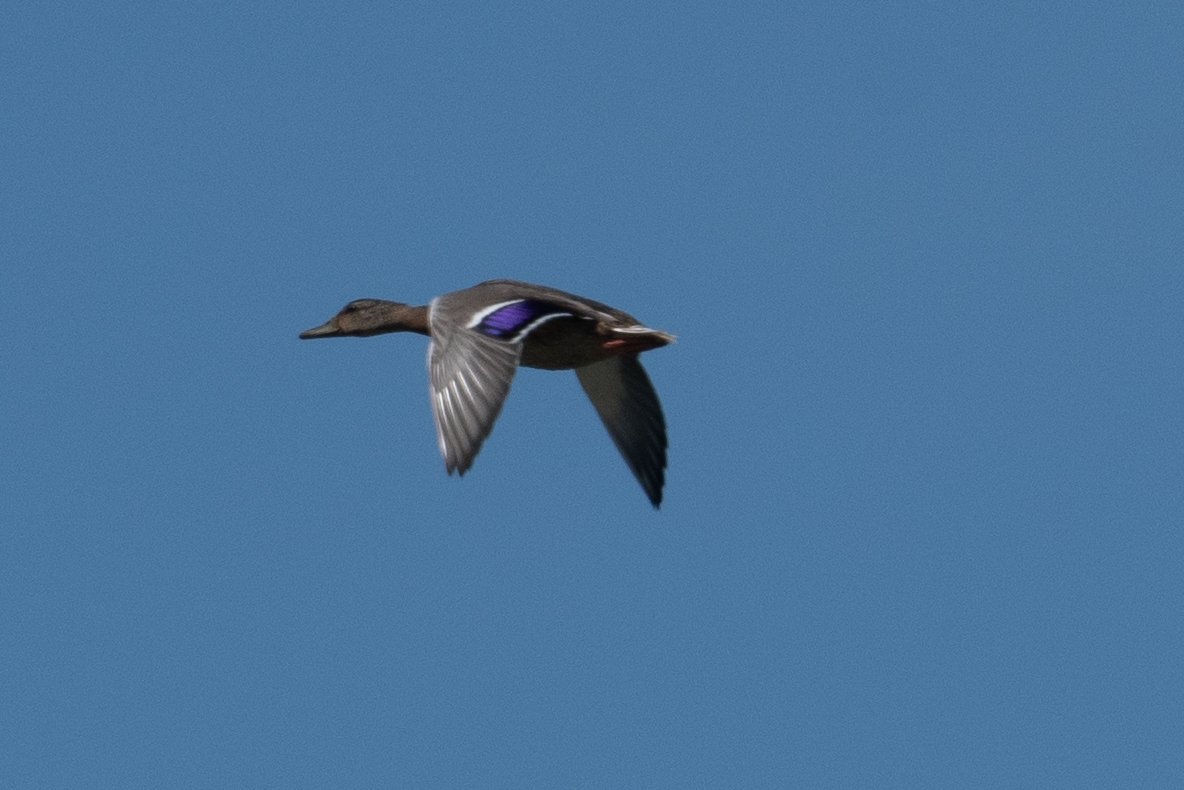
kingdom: Animalia
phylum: Chordata
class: Aves
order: Anseriformes
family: Anatidae
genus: Anas
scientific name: Anas platyrhynchos
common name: Mallard
